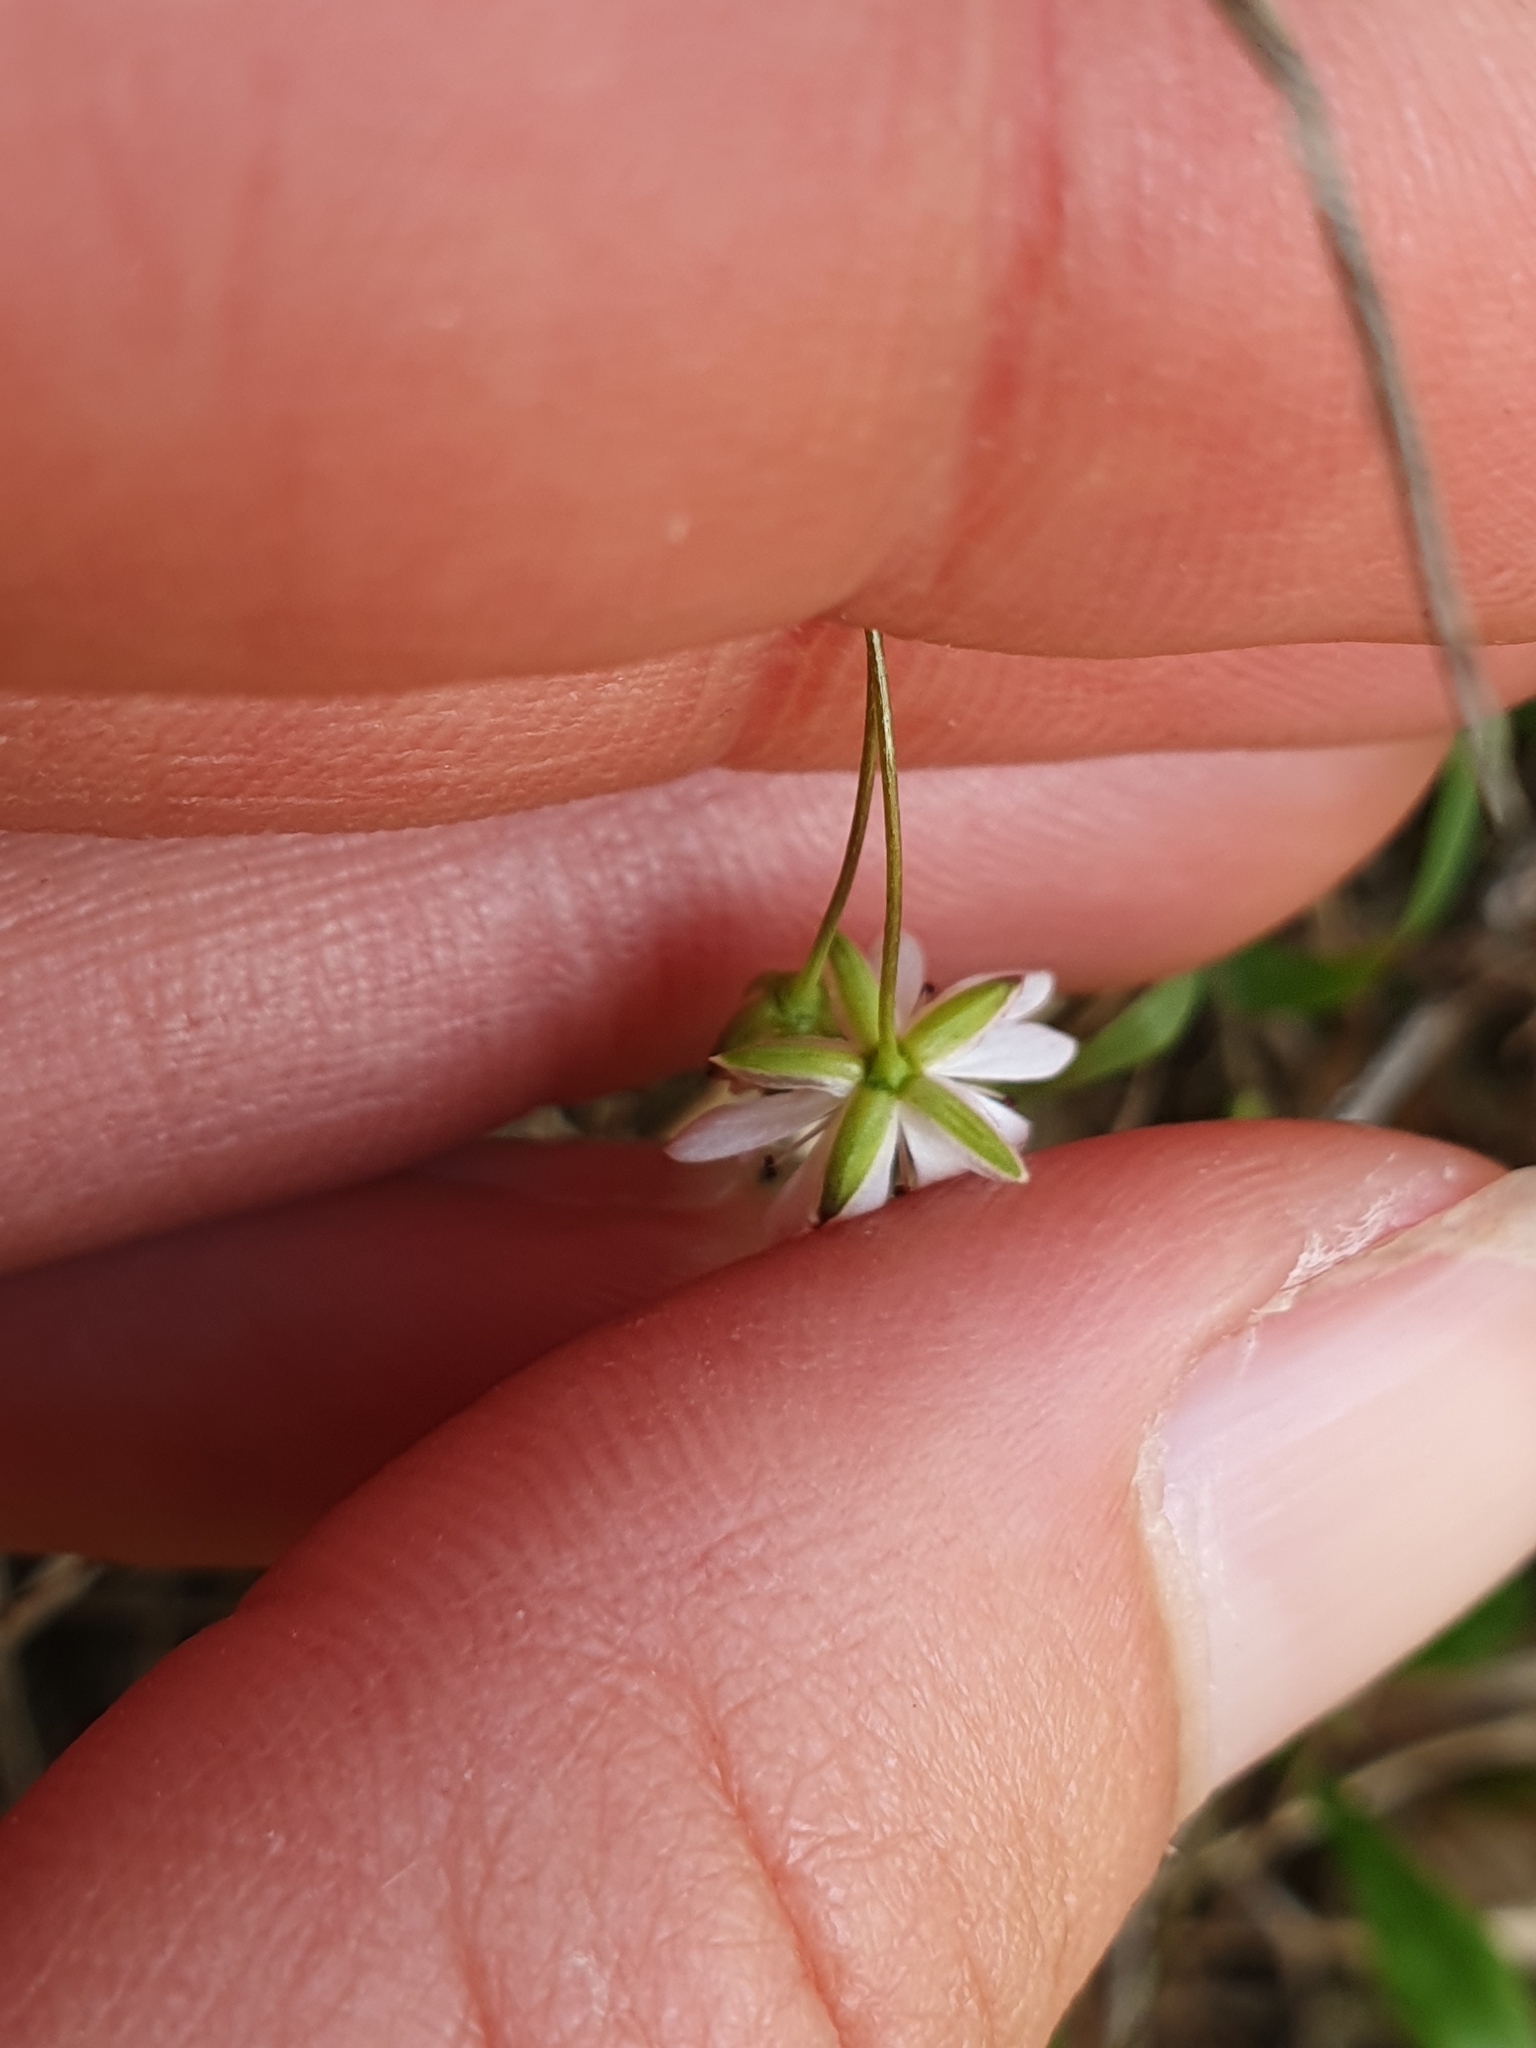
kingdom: Plantae
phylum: Tracheophyta
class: Magnoliopsida
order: Caryophyllales
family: Caryophyllaceae
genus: Stellaria
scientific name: Stellaria gracilenta
